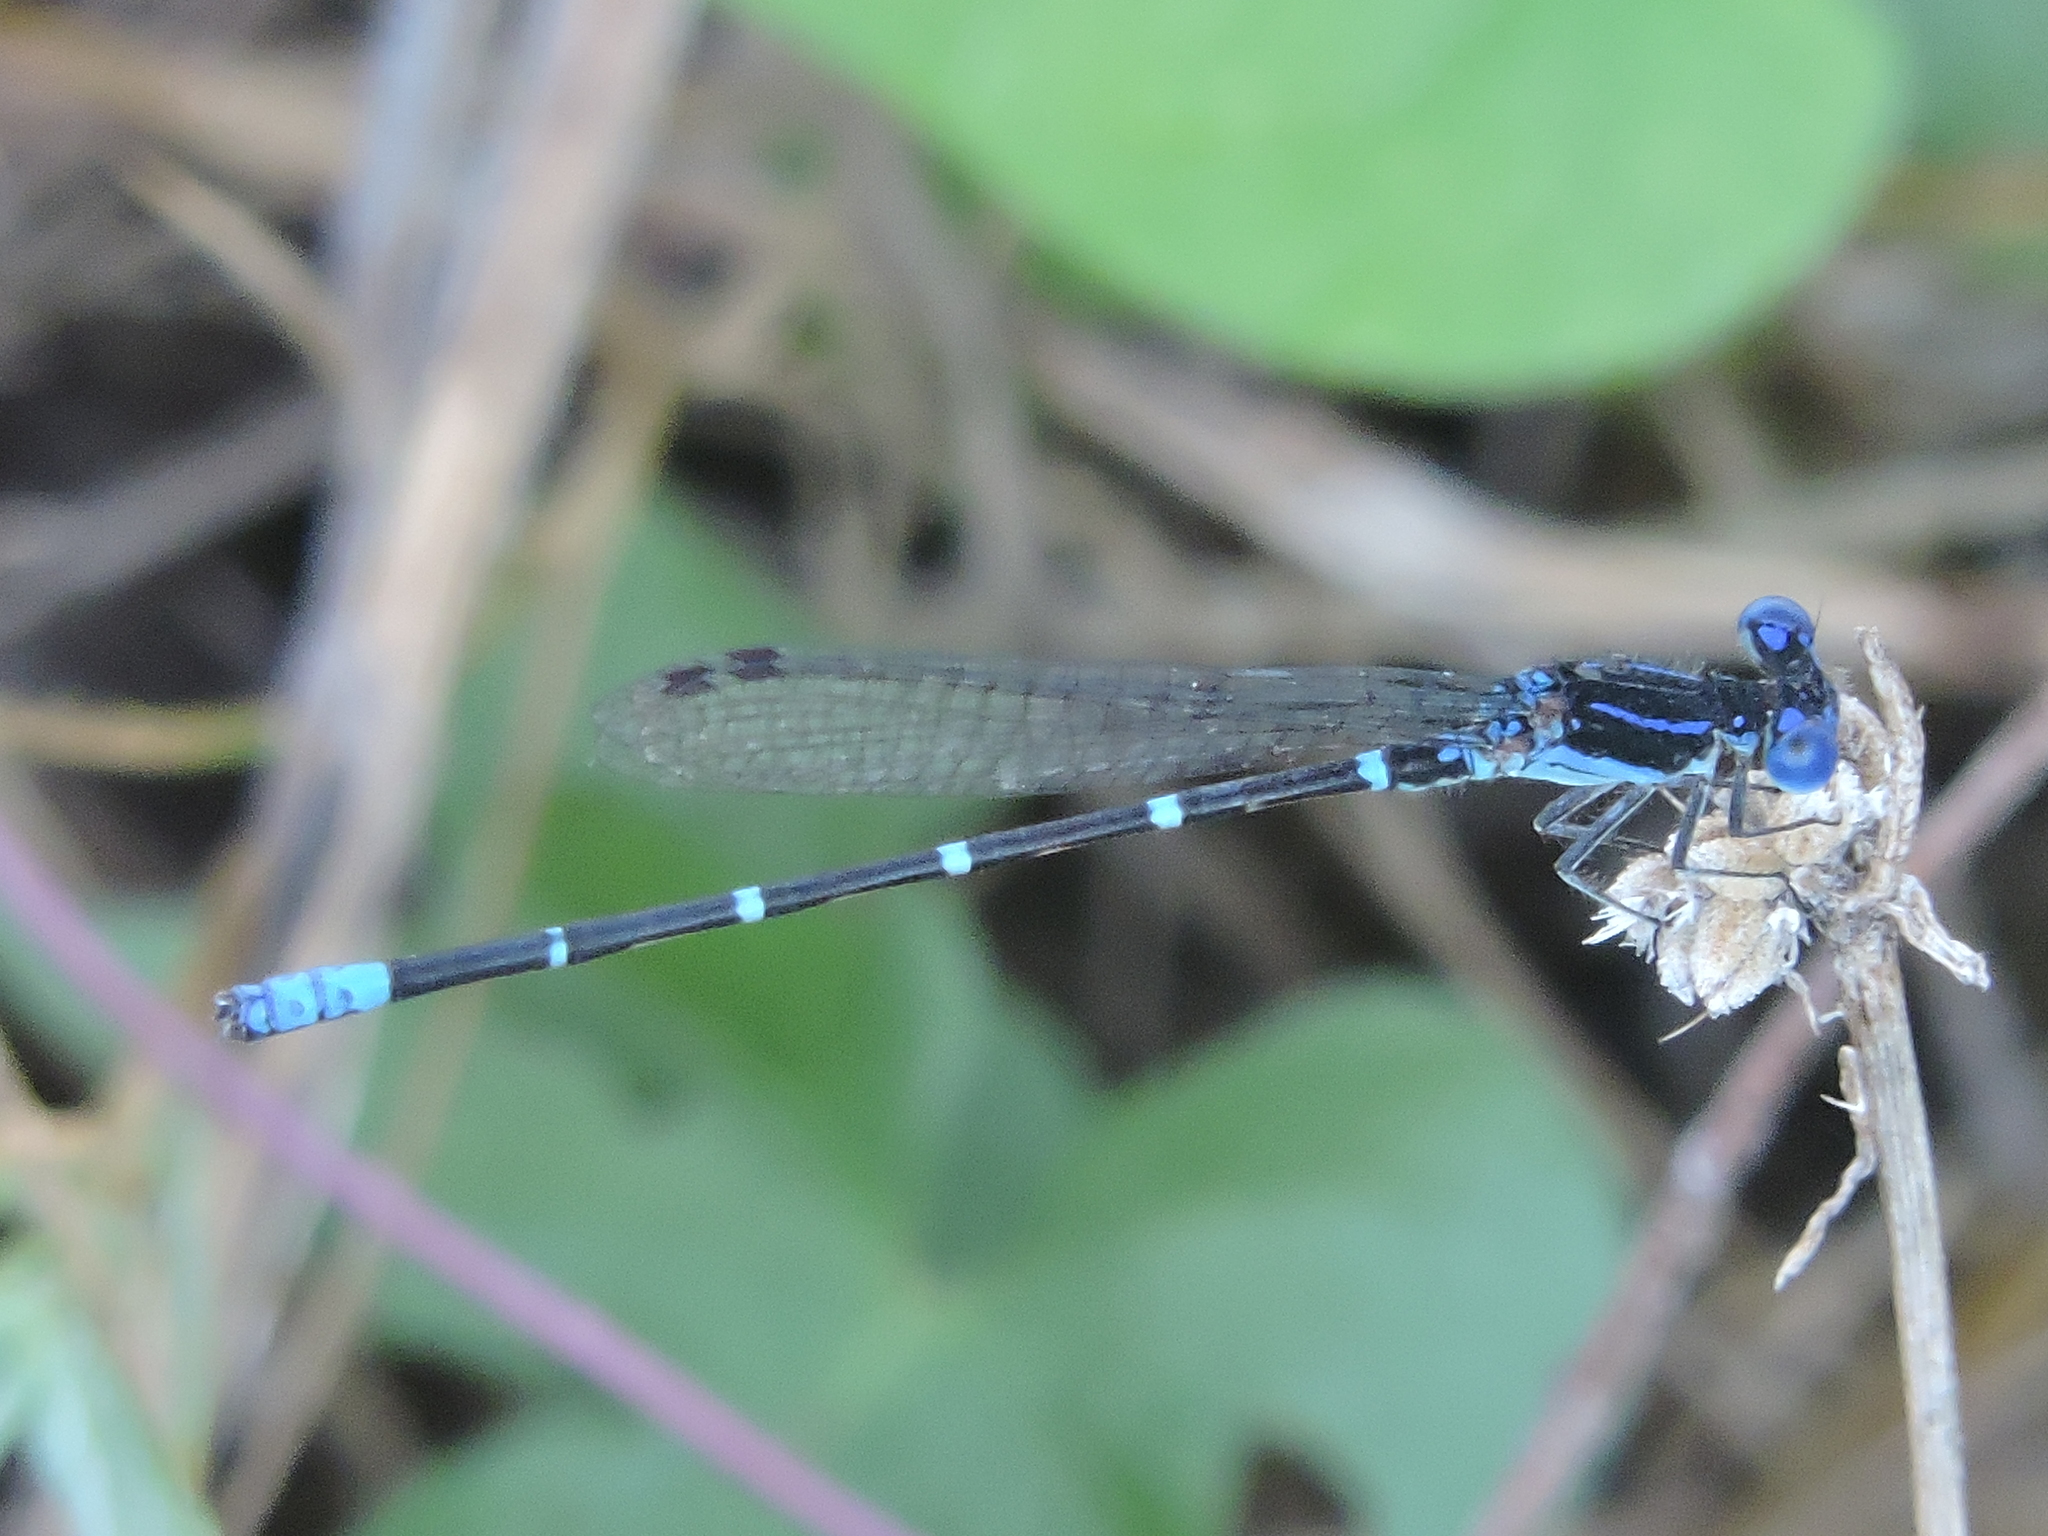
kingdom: Animalia
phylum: Arthropoda
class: Insecta
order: Odonata
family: Coenagrionidae
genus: Argia
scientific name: Argia sedula
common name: Blue-ringed dancer
